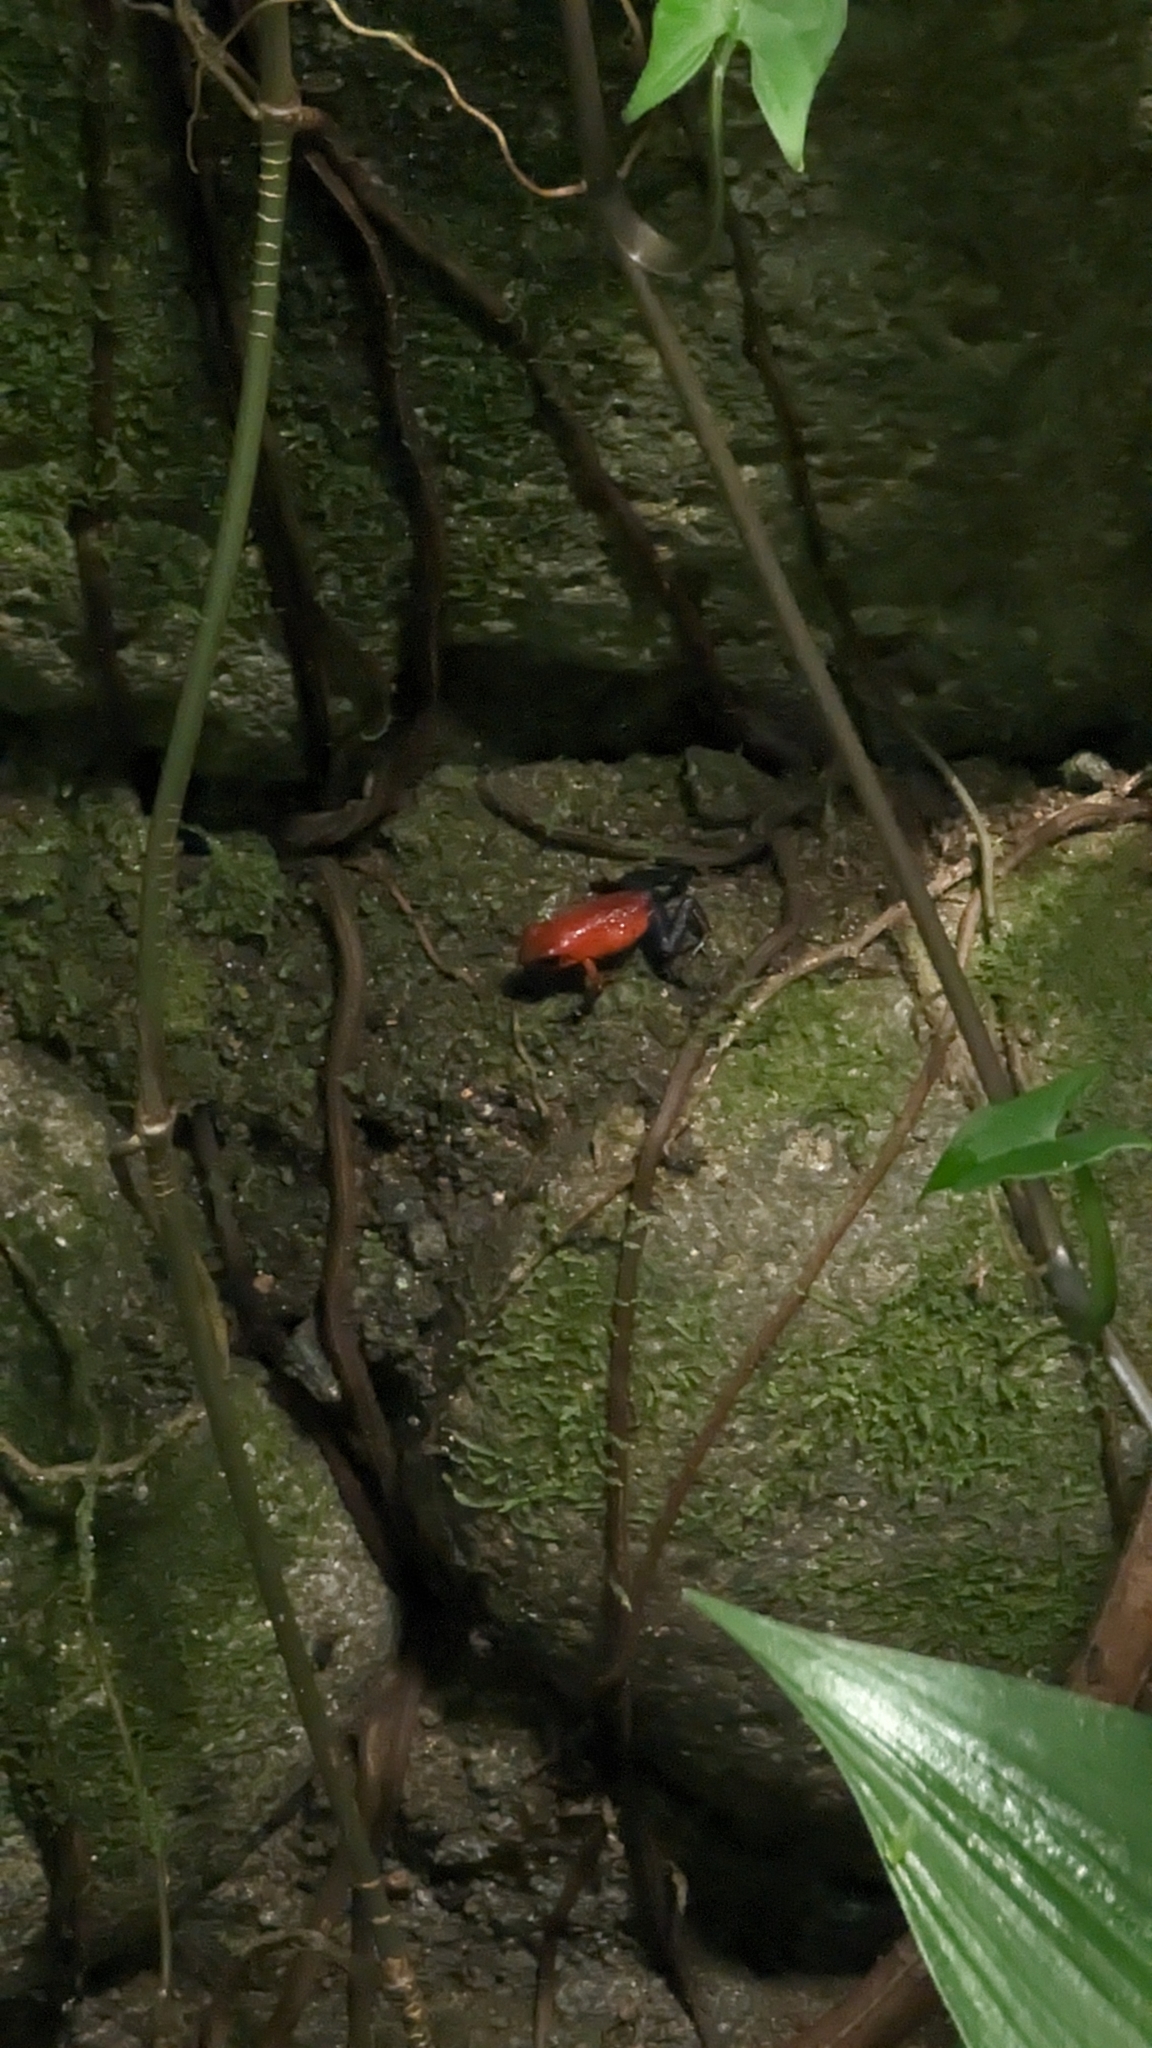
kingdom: Animalia
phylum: Chordata
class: Amphibia
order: Anura
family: Dendrobatidae
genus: Oophaga
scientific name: Oophaga pumilio
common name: Flaming poison frog
